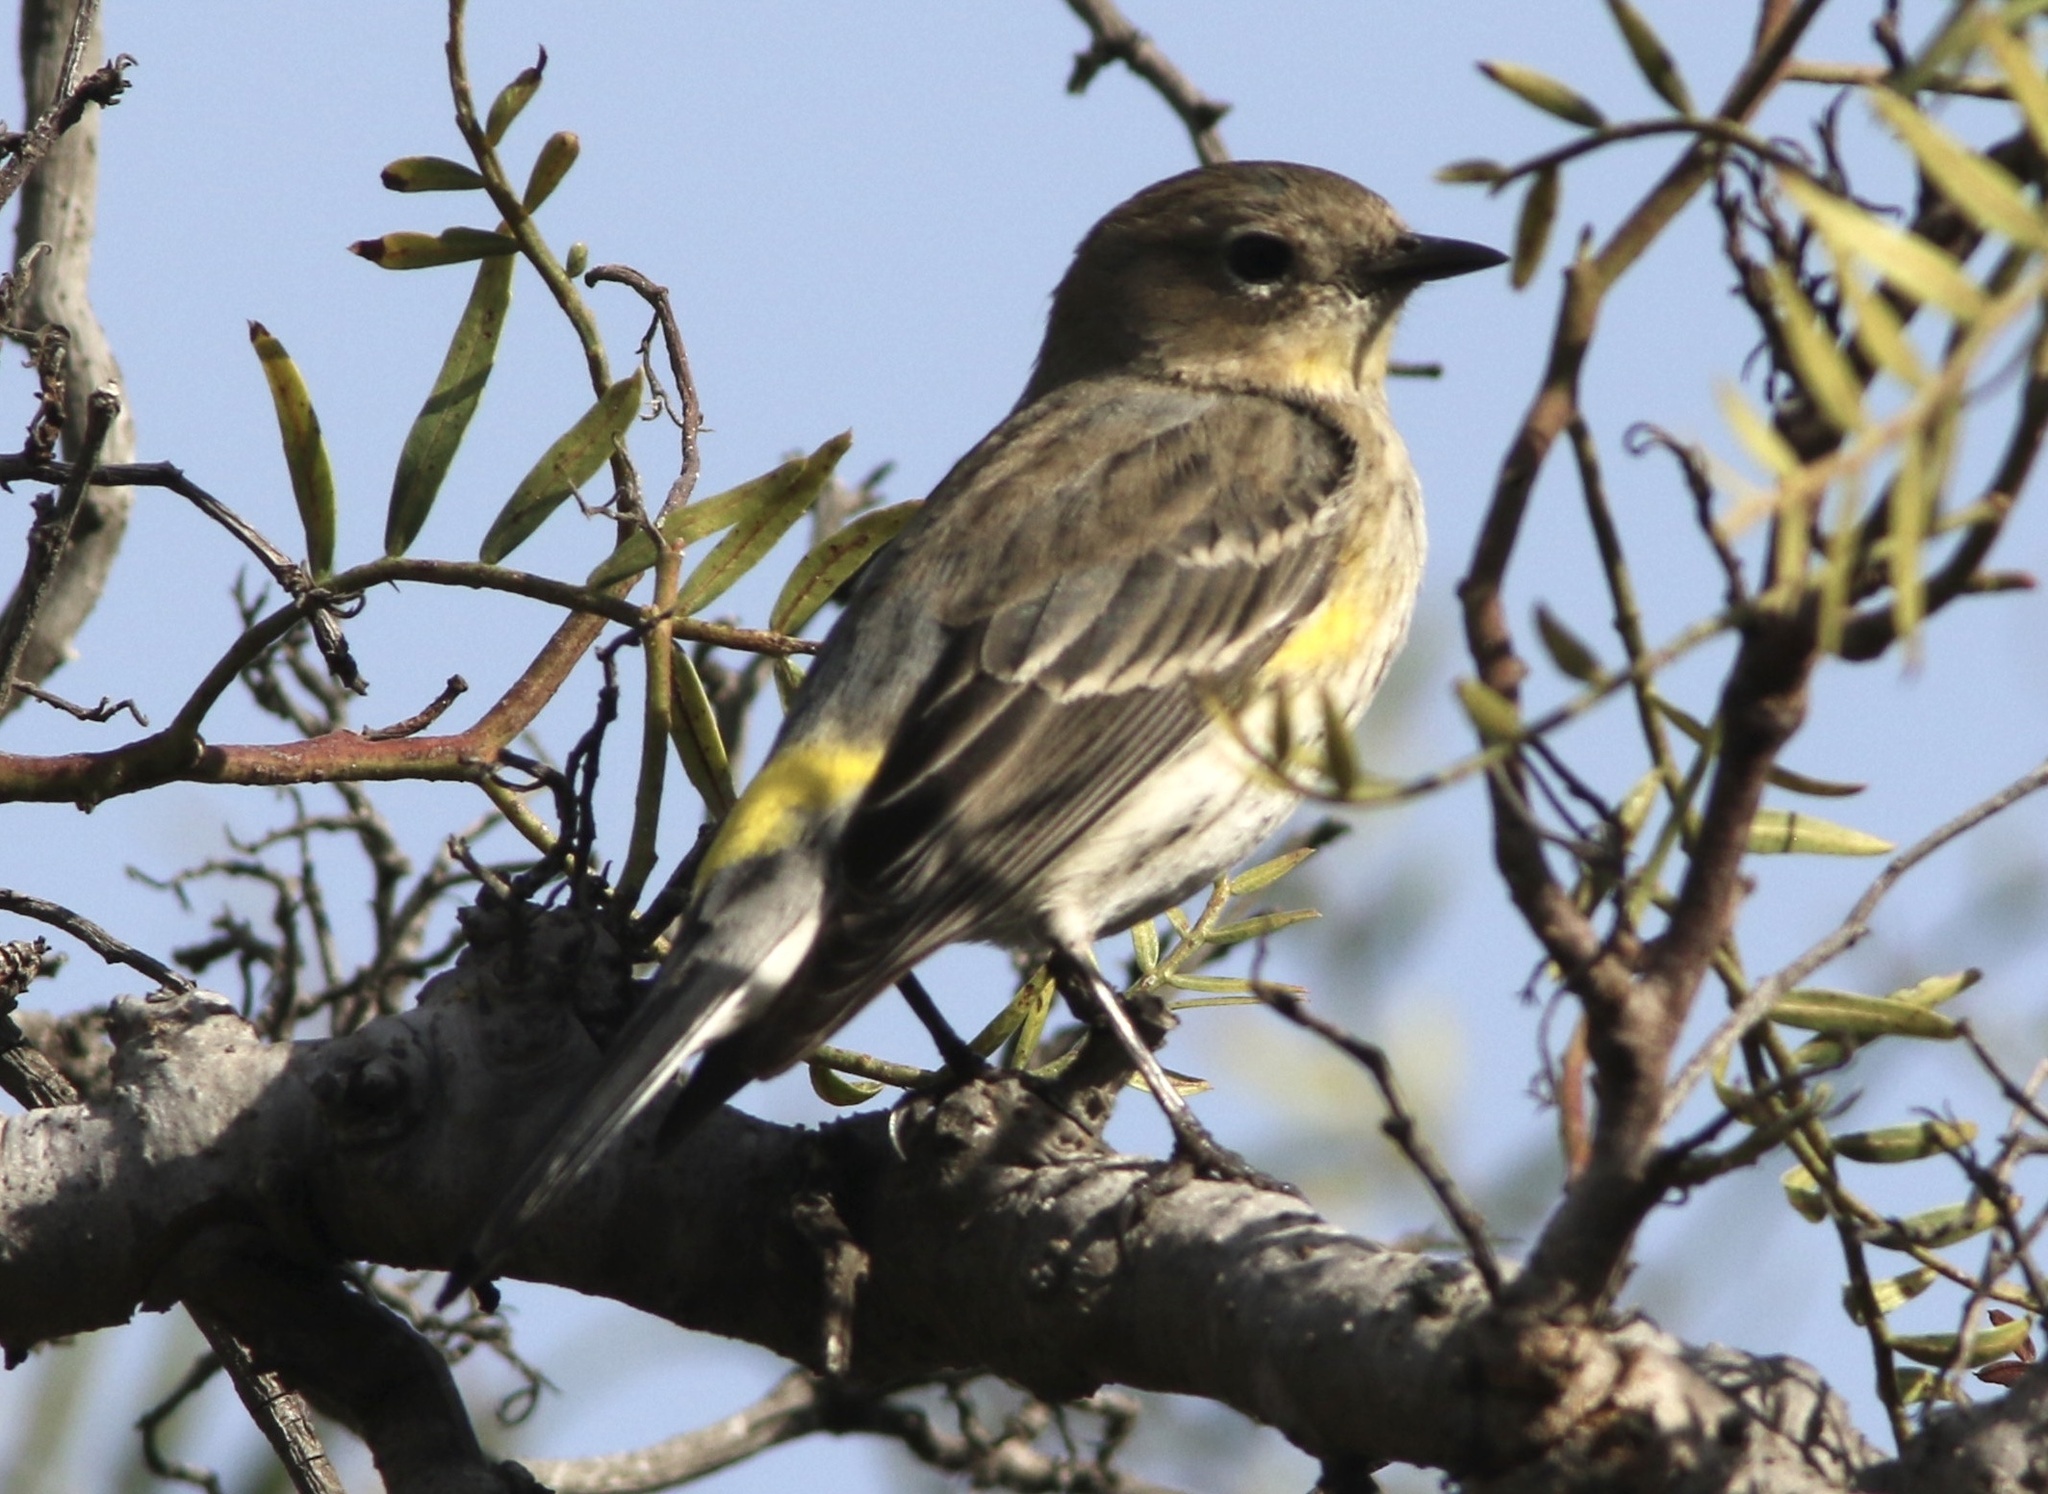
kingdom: Animalia
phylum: Chordata
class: Aves
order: Passeriformes
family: Parulidae
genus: Setophaga
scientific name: Setophaga coronata
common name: Myrtle warbler
